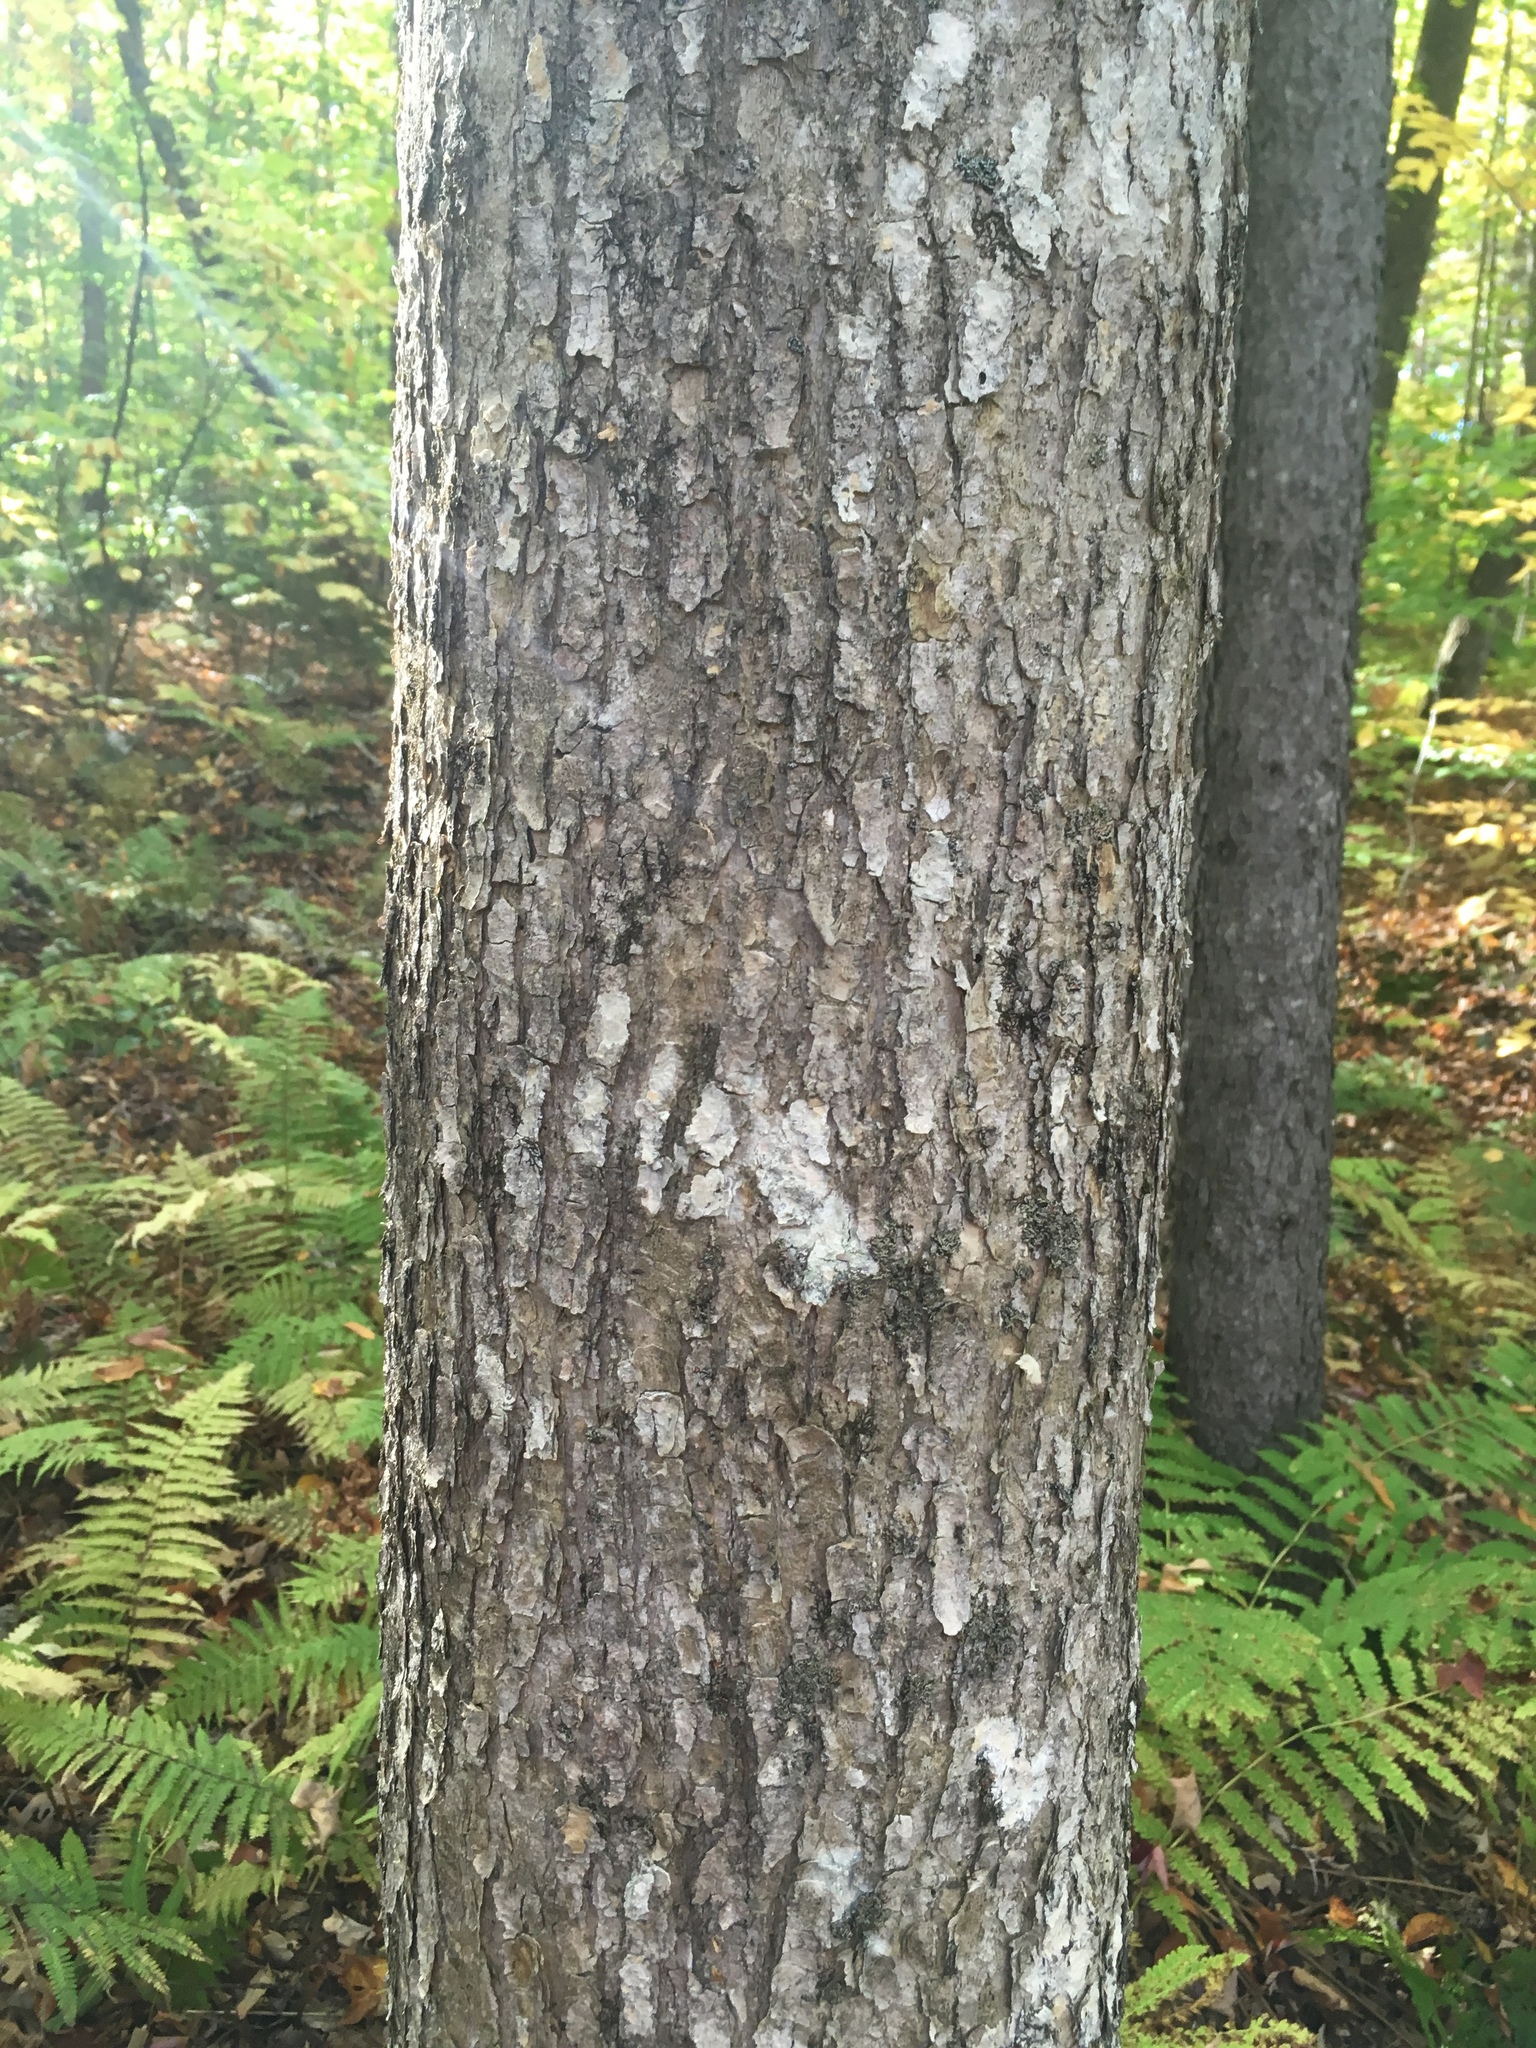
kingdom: Plantae
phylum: Tracheophyta
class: Magnoliopsida
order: Lamiales
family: Oleaceae
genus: Fraxinus
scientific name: Fraxinus nigra
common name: Black ash
